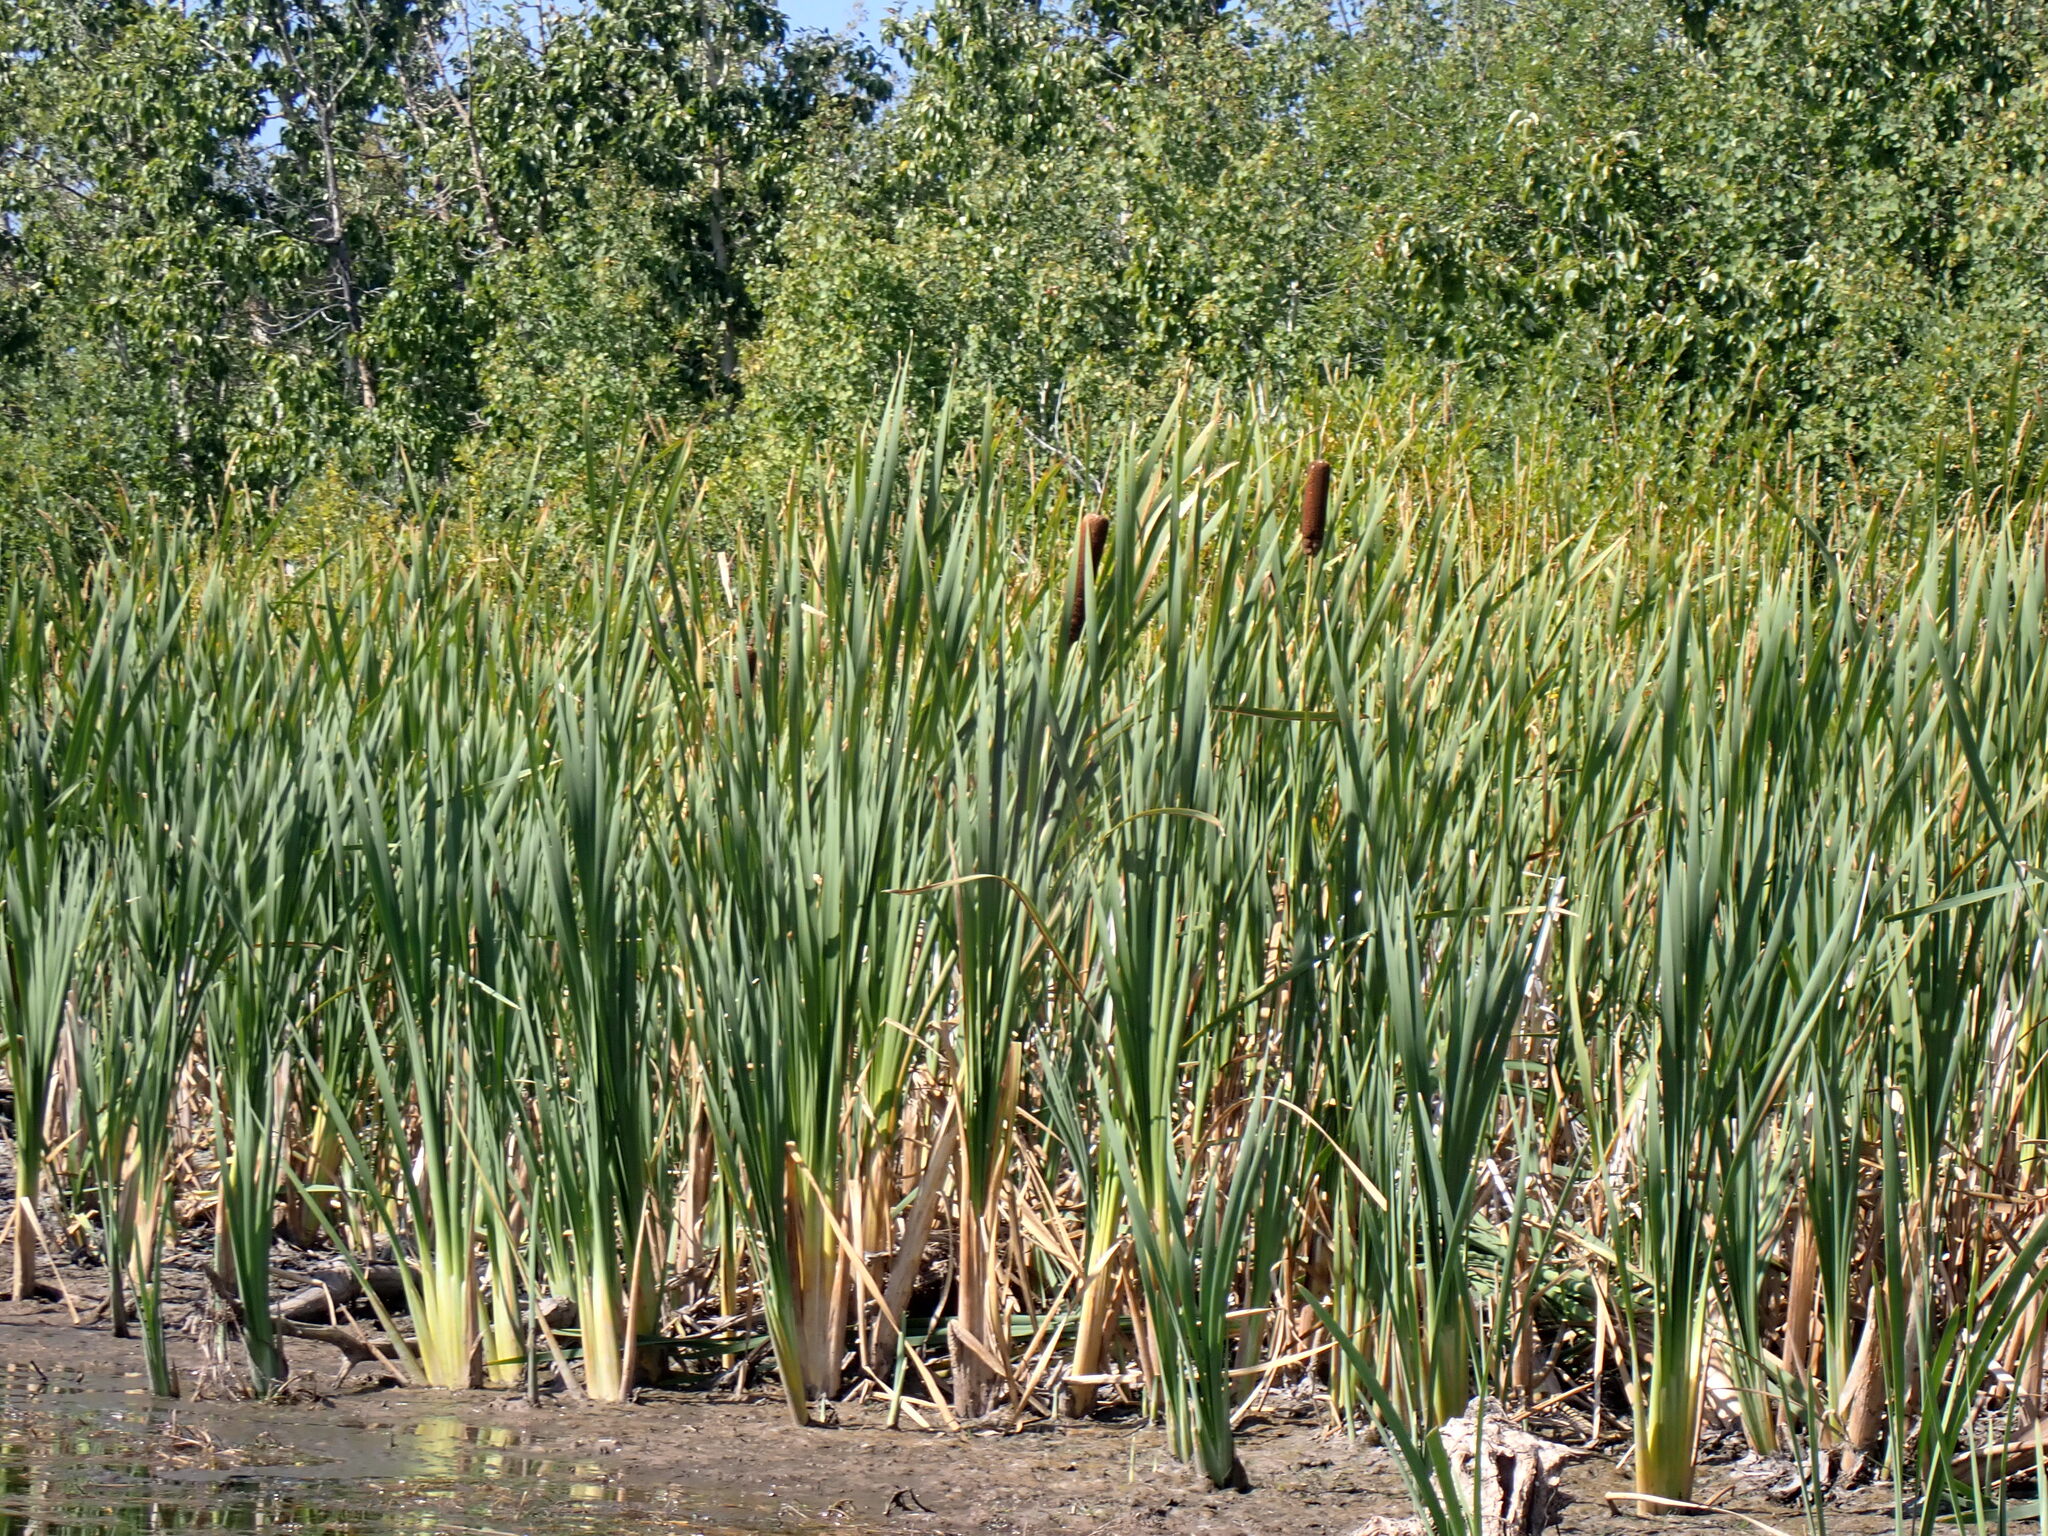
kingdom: Plantae
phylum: Tracheophyta
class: Liliopsida
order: Poales
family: Typhaceae
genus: Typha
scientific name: Typha latifolia
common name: Broadleaf cattail
